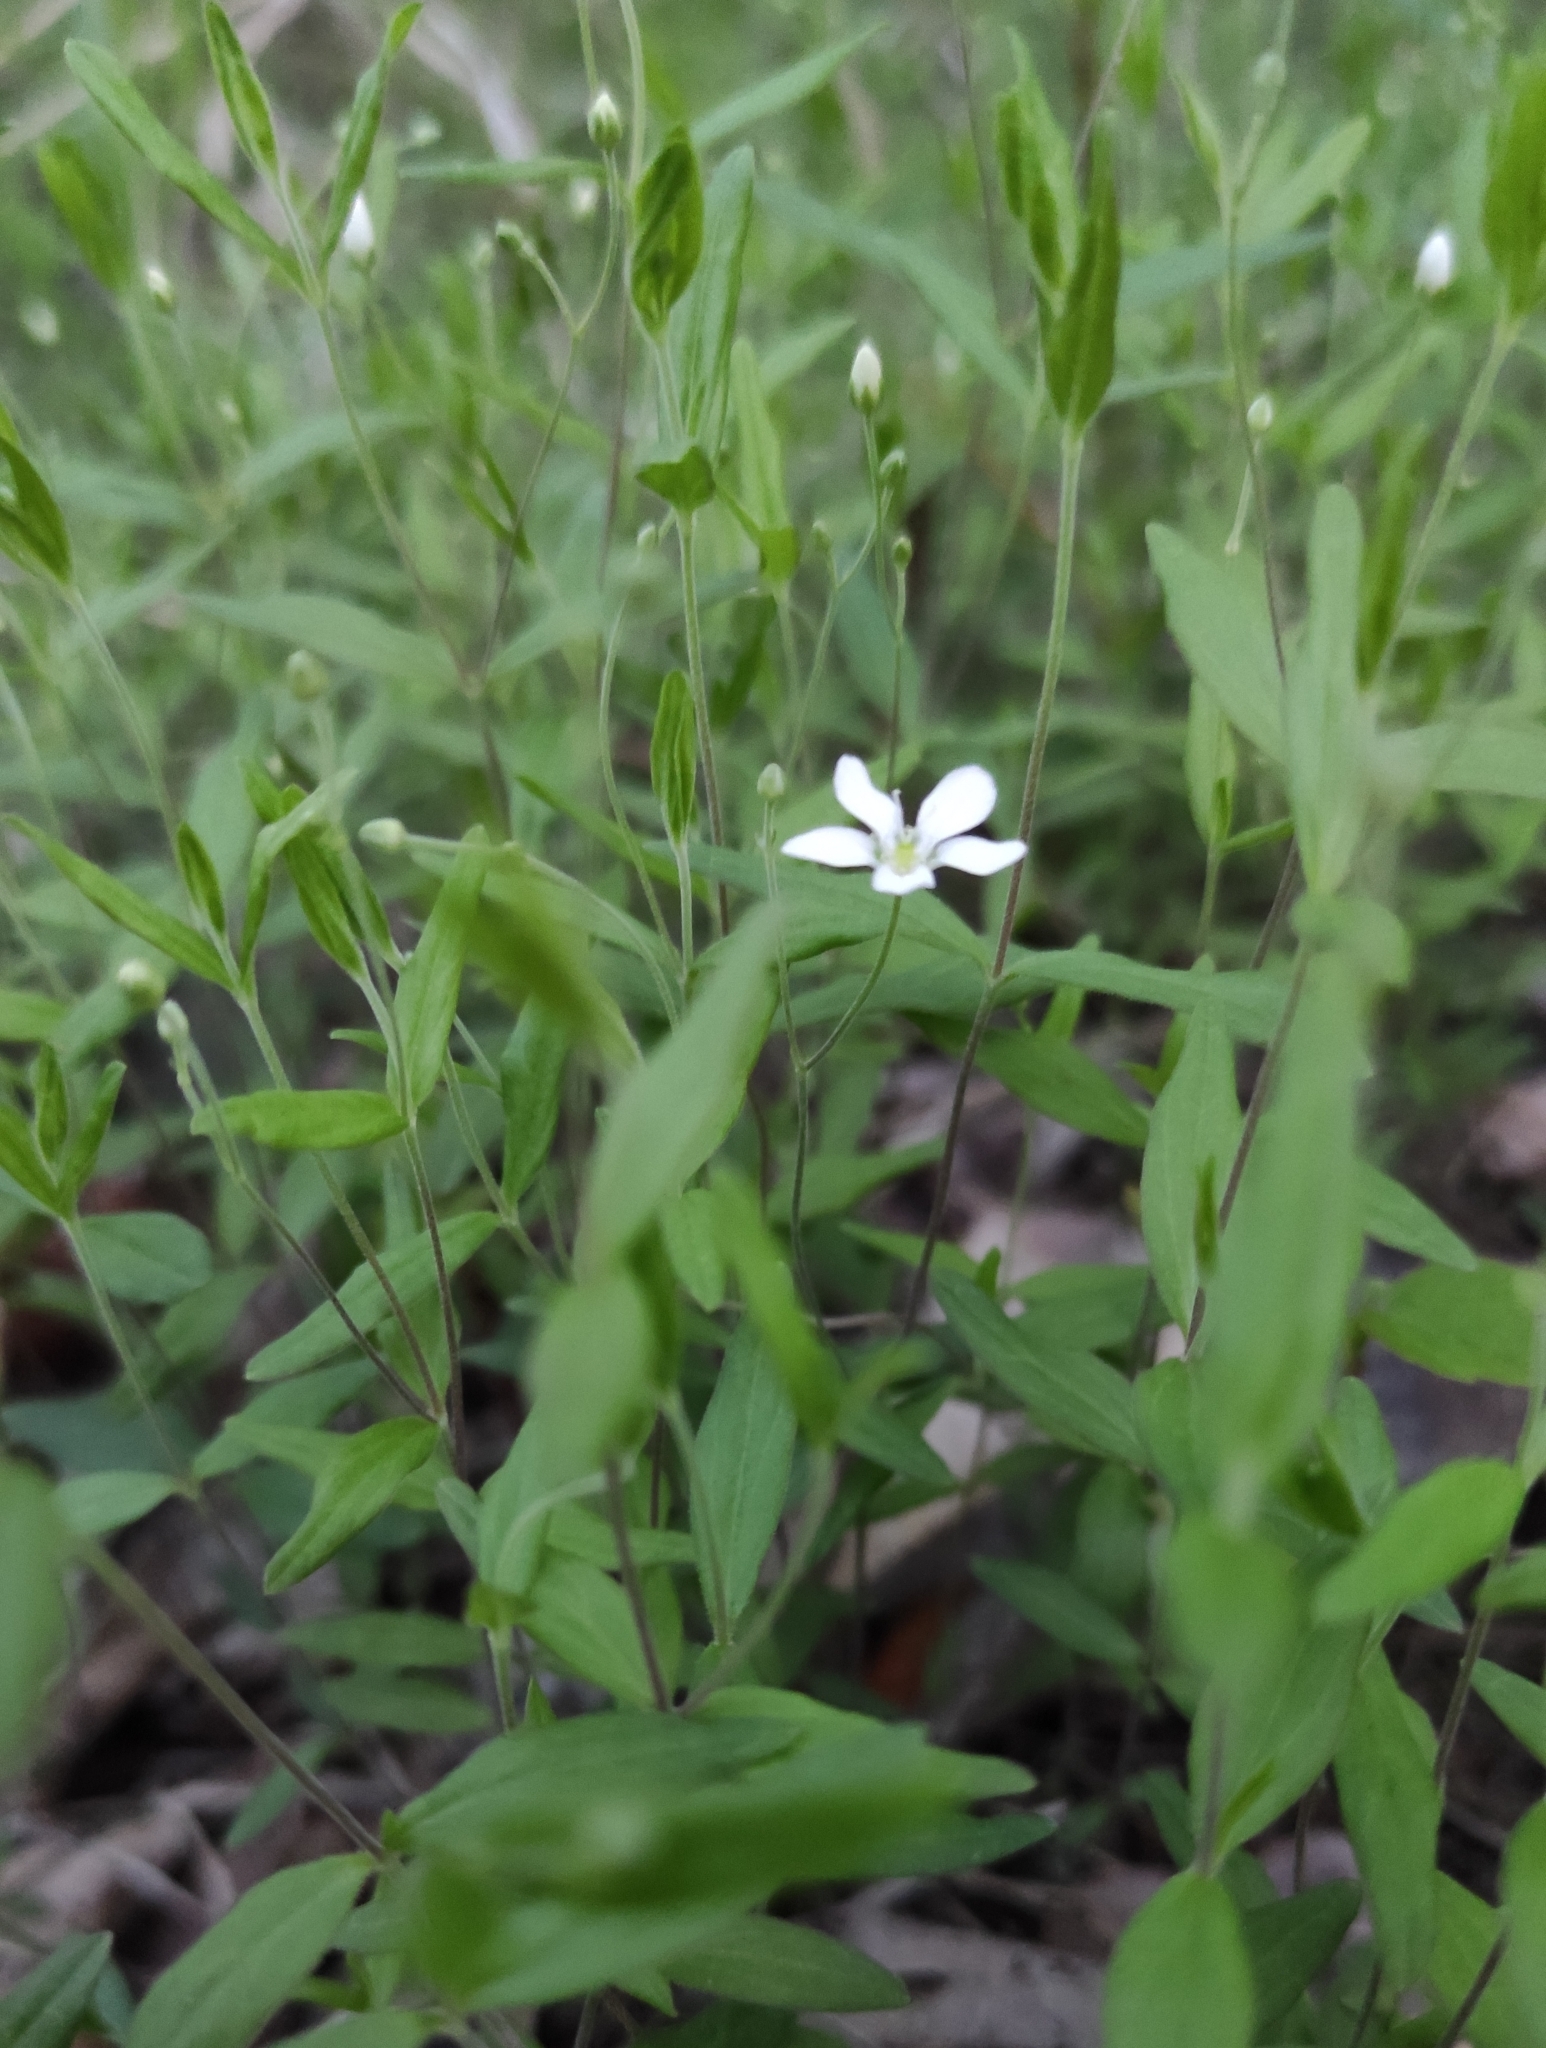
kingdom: Plantae
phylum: Tracheophyta
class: Magnoliopsida
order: Caryophyllales
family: Caryophyllaceae
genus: Moehringia
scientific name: Moehringia lateriflora
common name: Blunt-leaved sandwort
